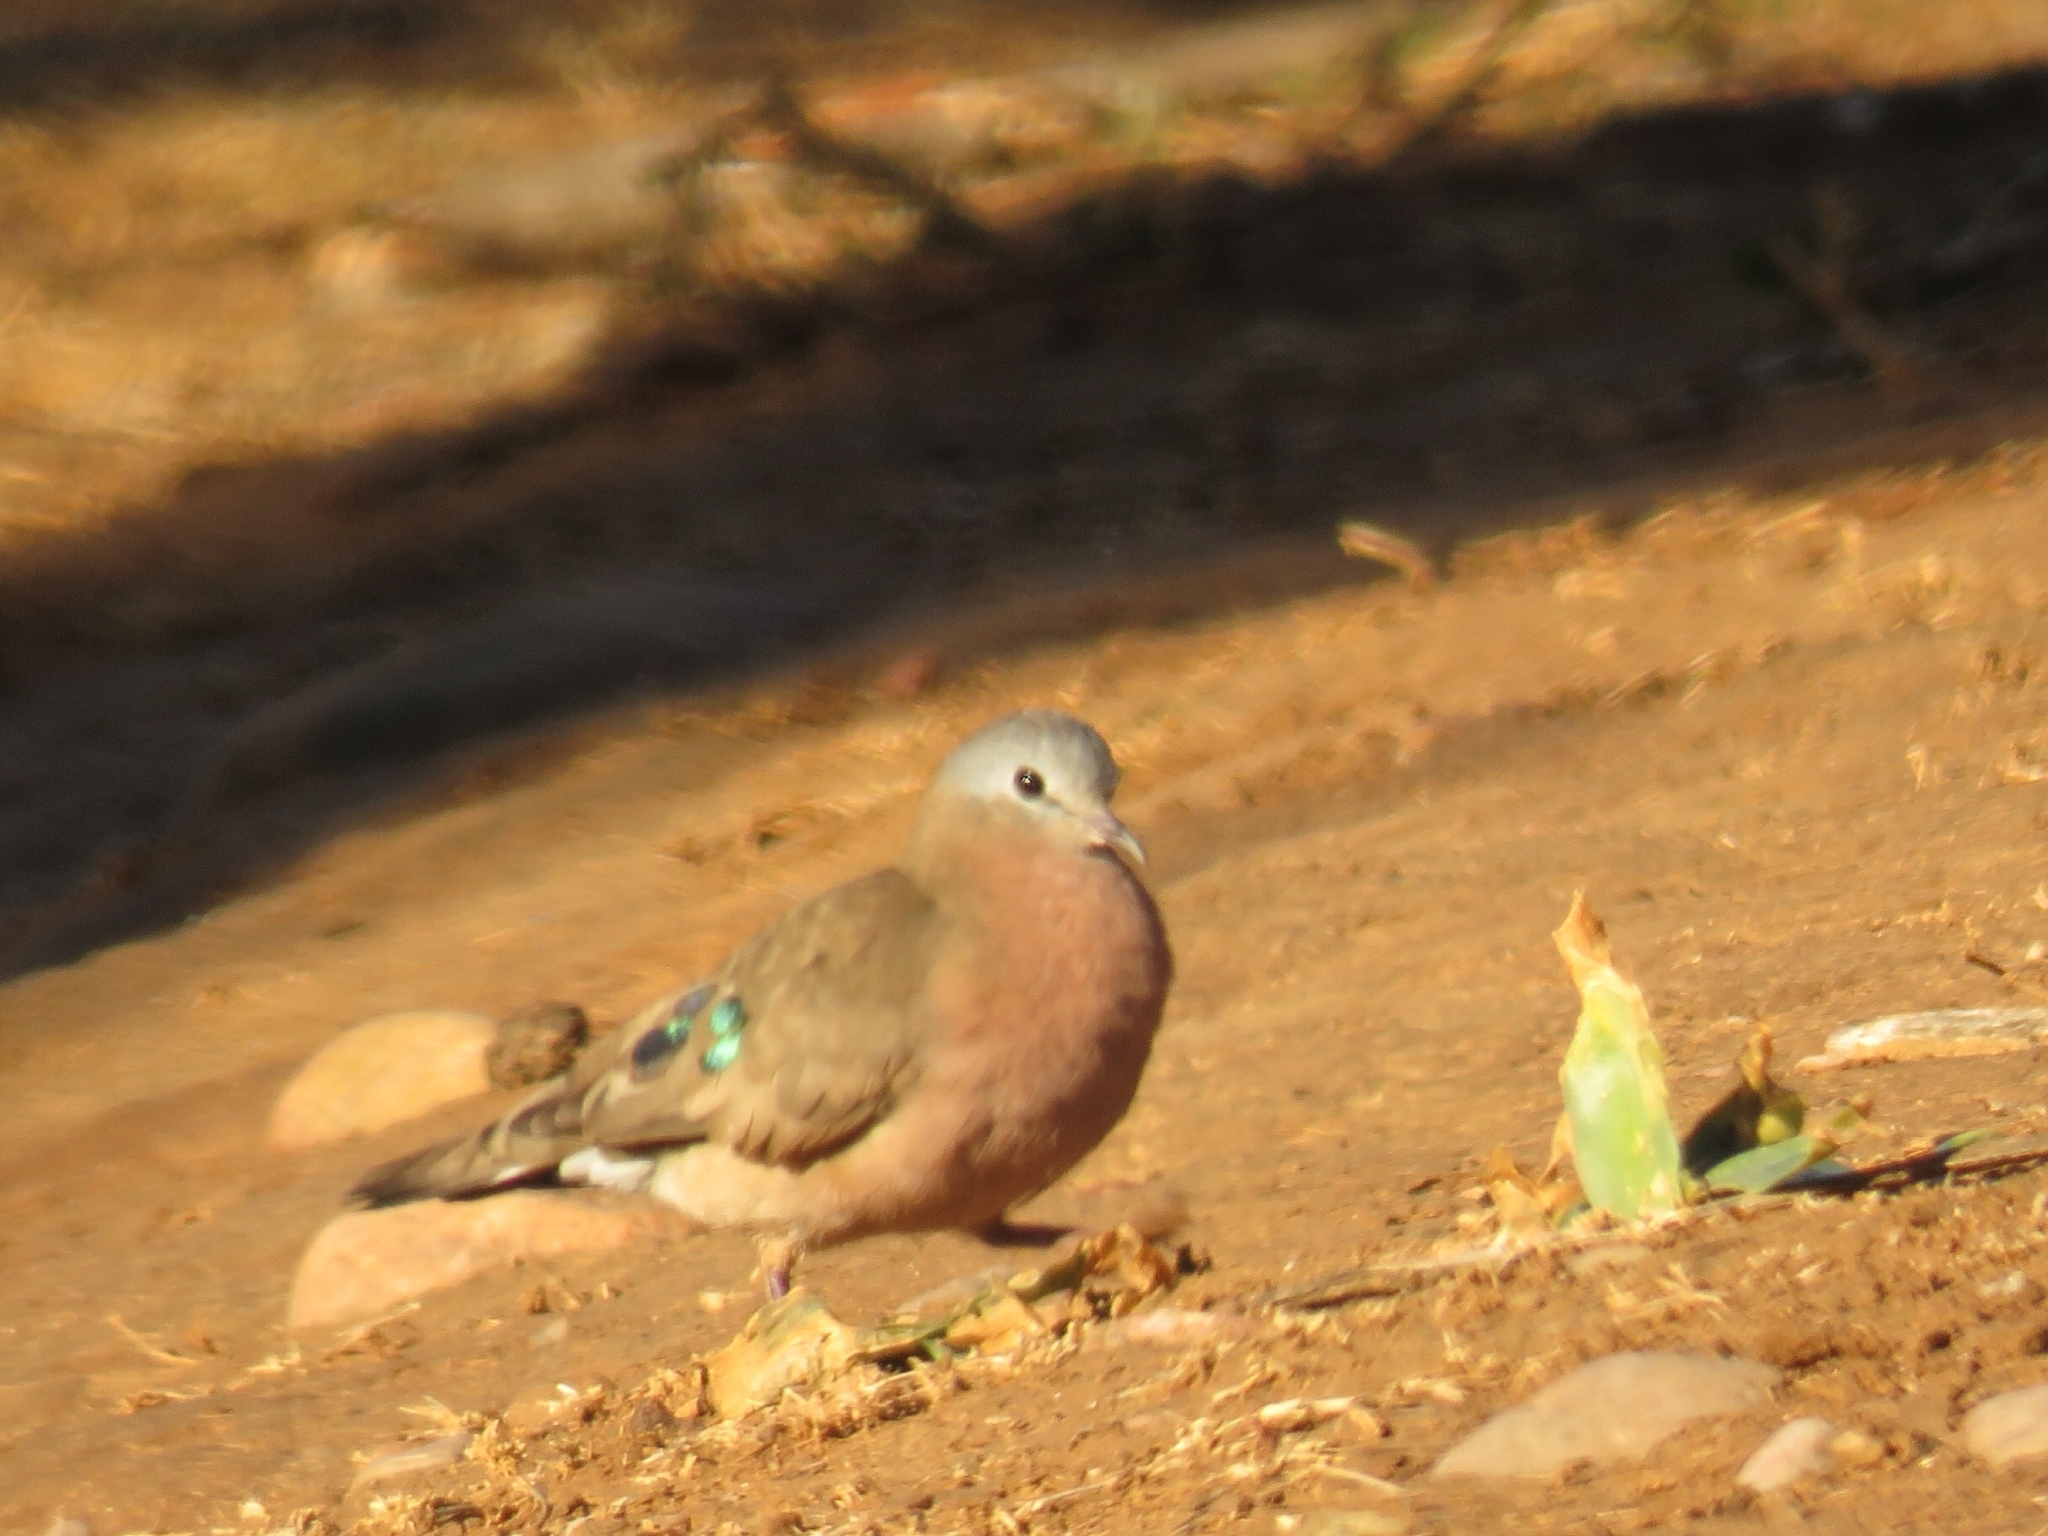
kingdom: Animalia
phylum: Chordata
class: Aves
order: Columbiformes
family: Columbidae
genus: Turtur
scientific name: Turtur chalcospilos
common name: Emerald-spotted wood dove
